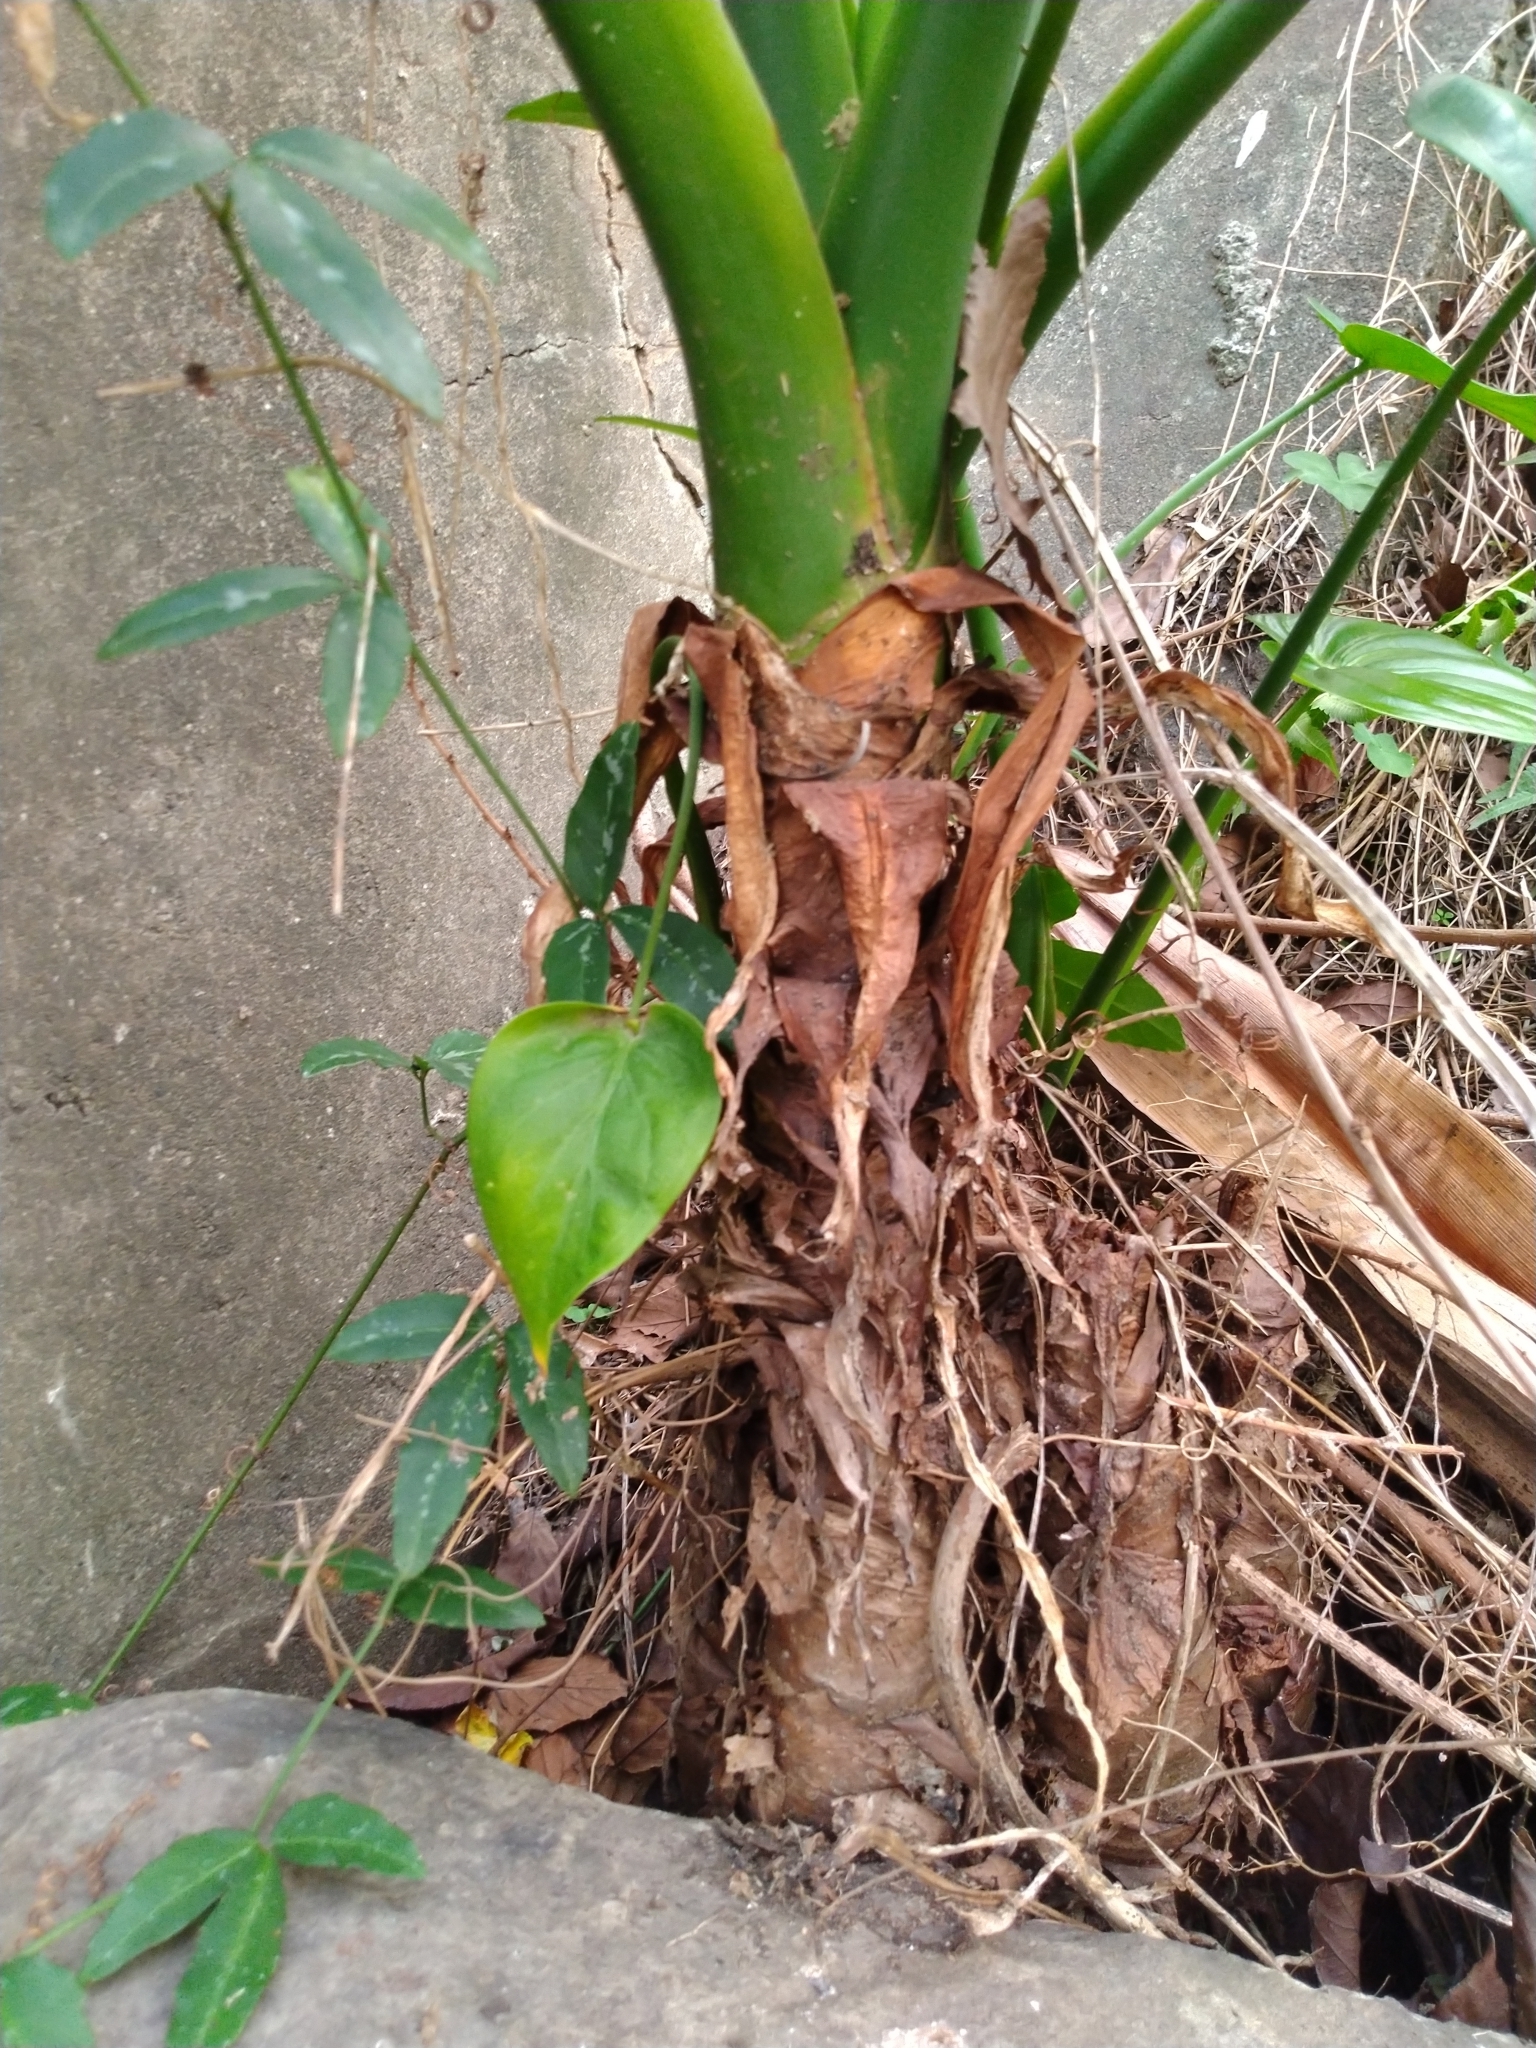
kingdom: Plantae
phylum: Tracheophyta
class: Liliopsida
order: Alismatales
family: Araceae
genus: Alocasia
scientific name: Alocasia cucullata
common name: Buddha's hand
